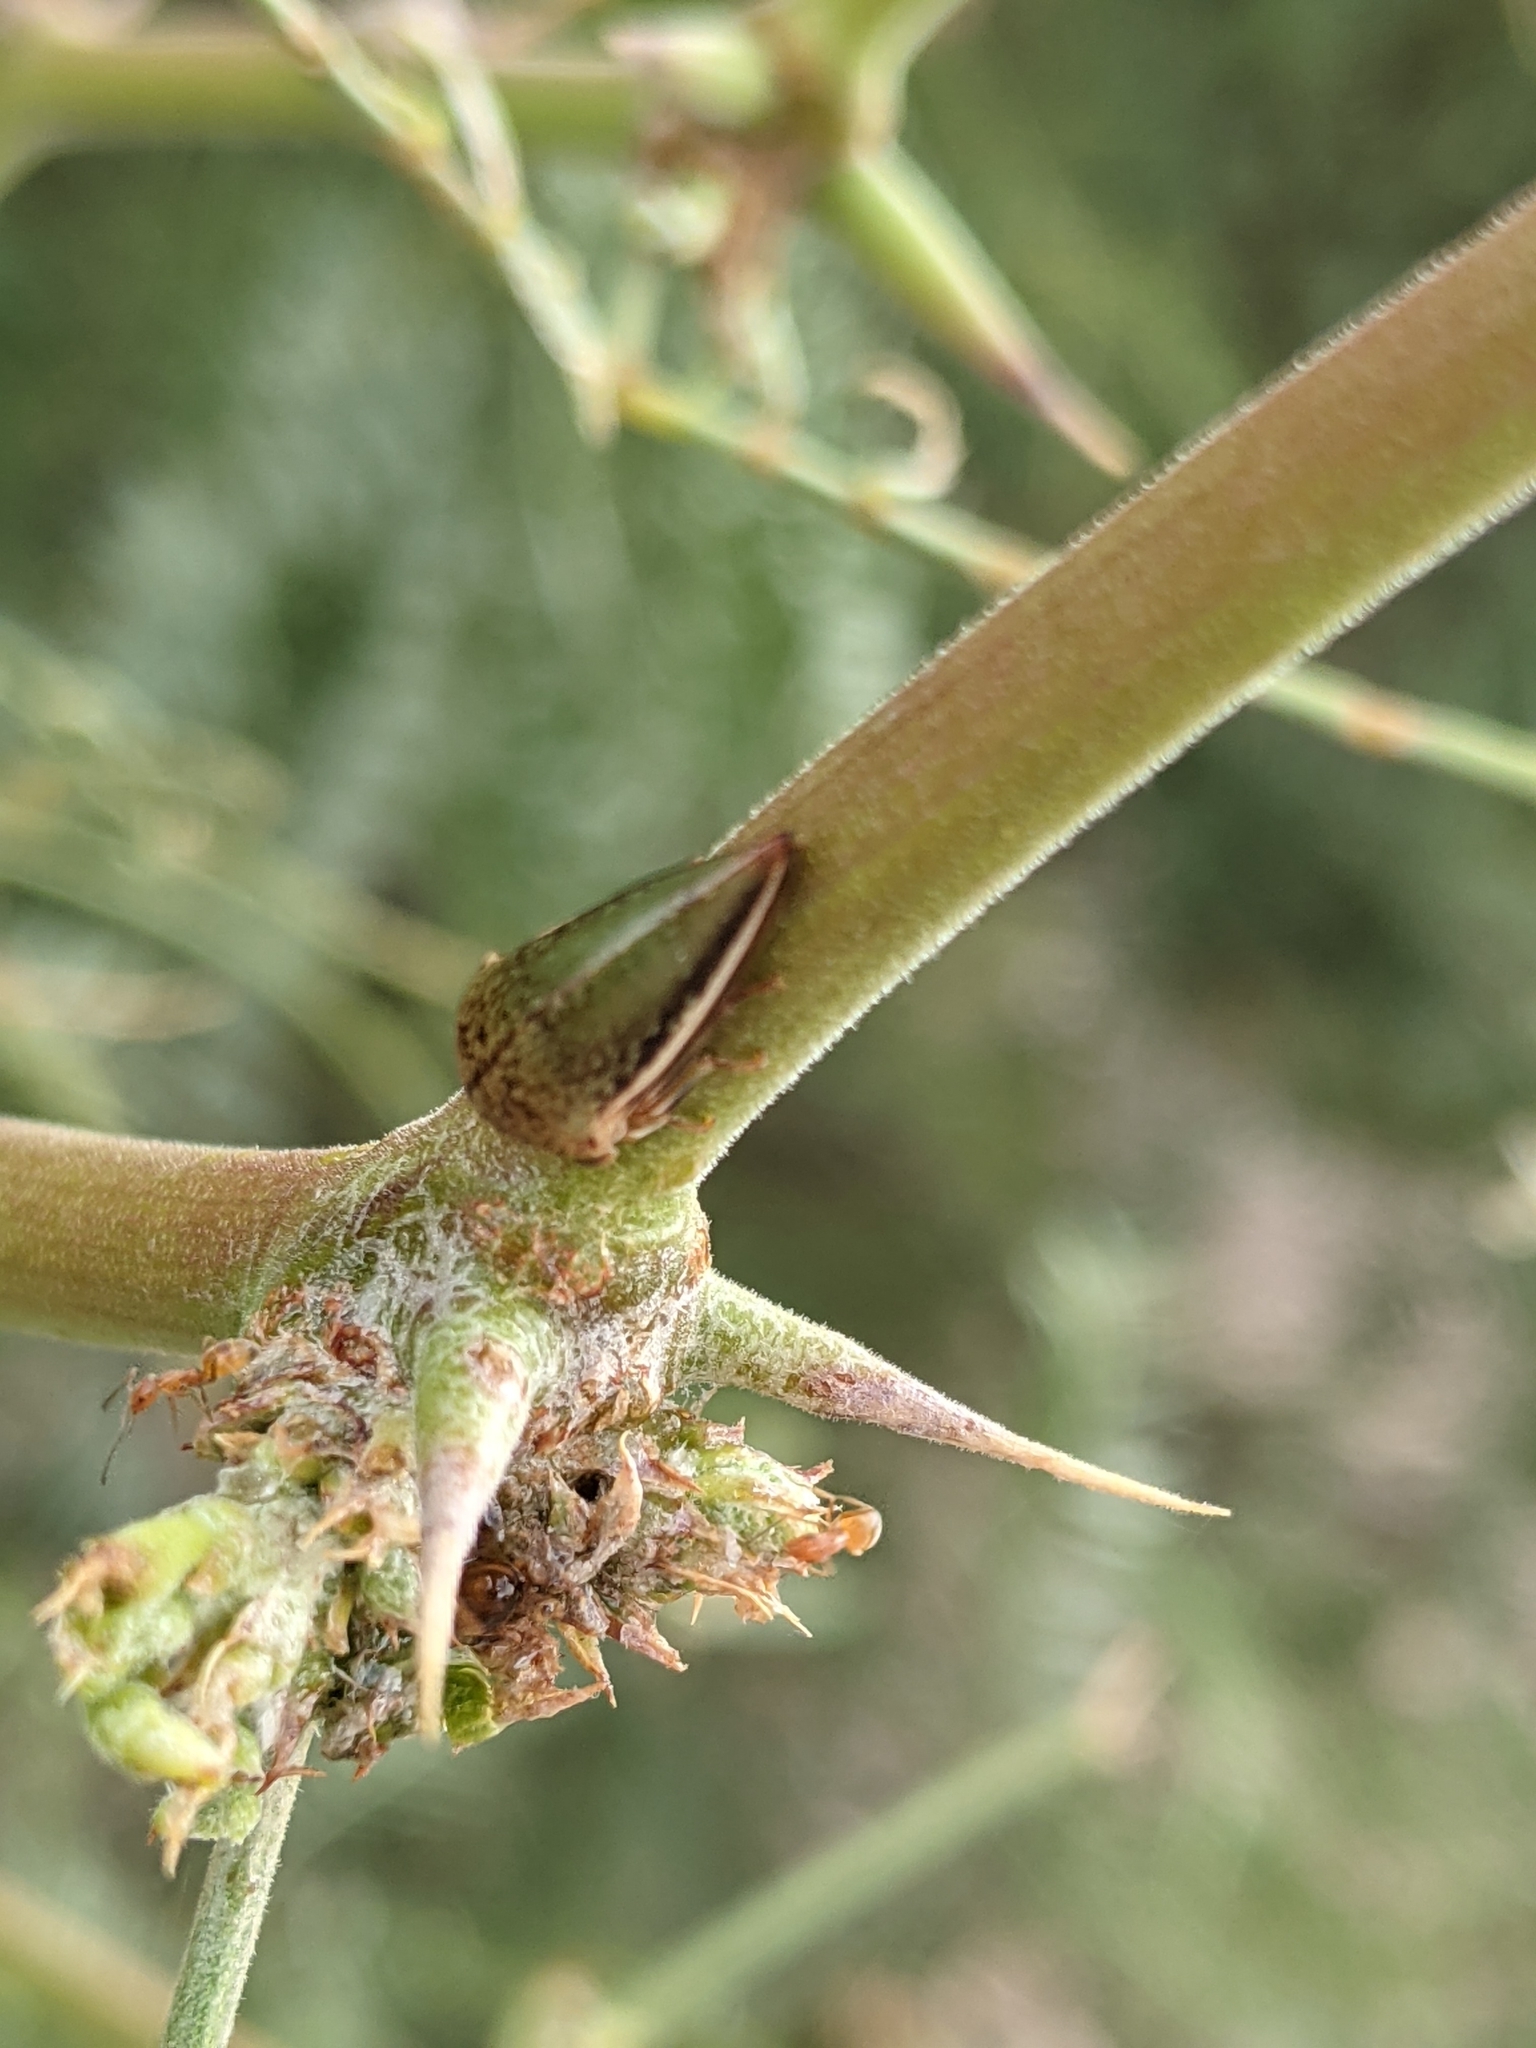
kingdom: Animalia
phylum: Arthropoda
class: Insecta
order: Hemiptera
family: Membracidae
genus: Stictopelta
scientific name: Stictopelta marmorata
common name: Treehopper
